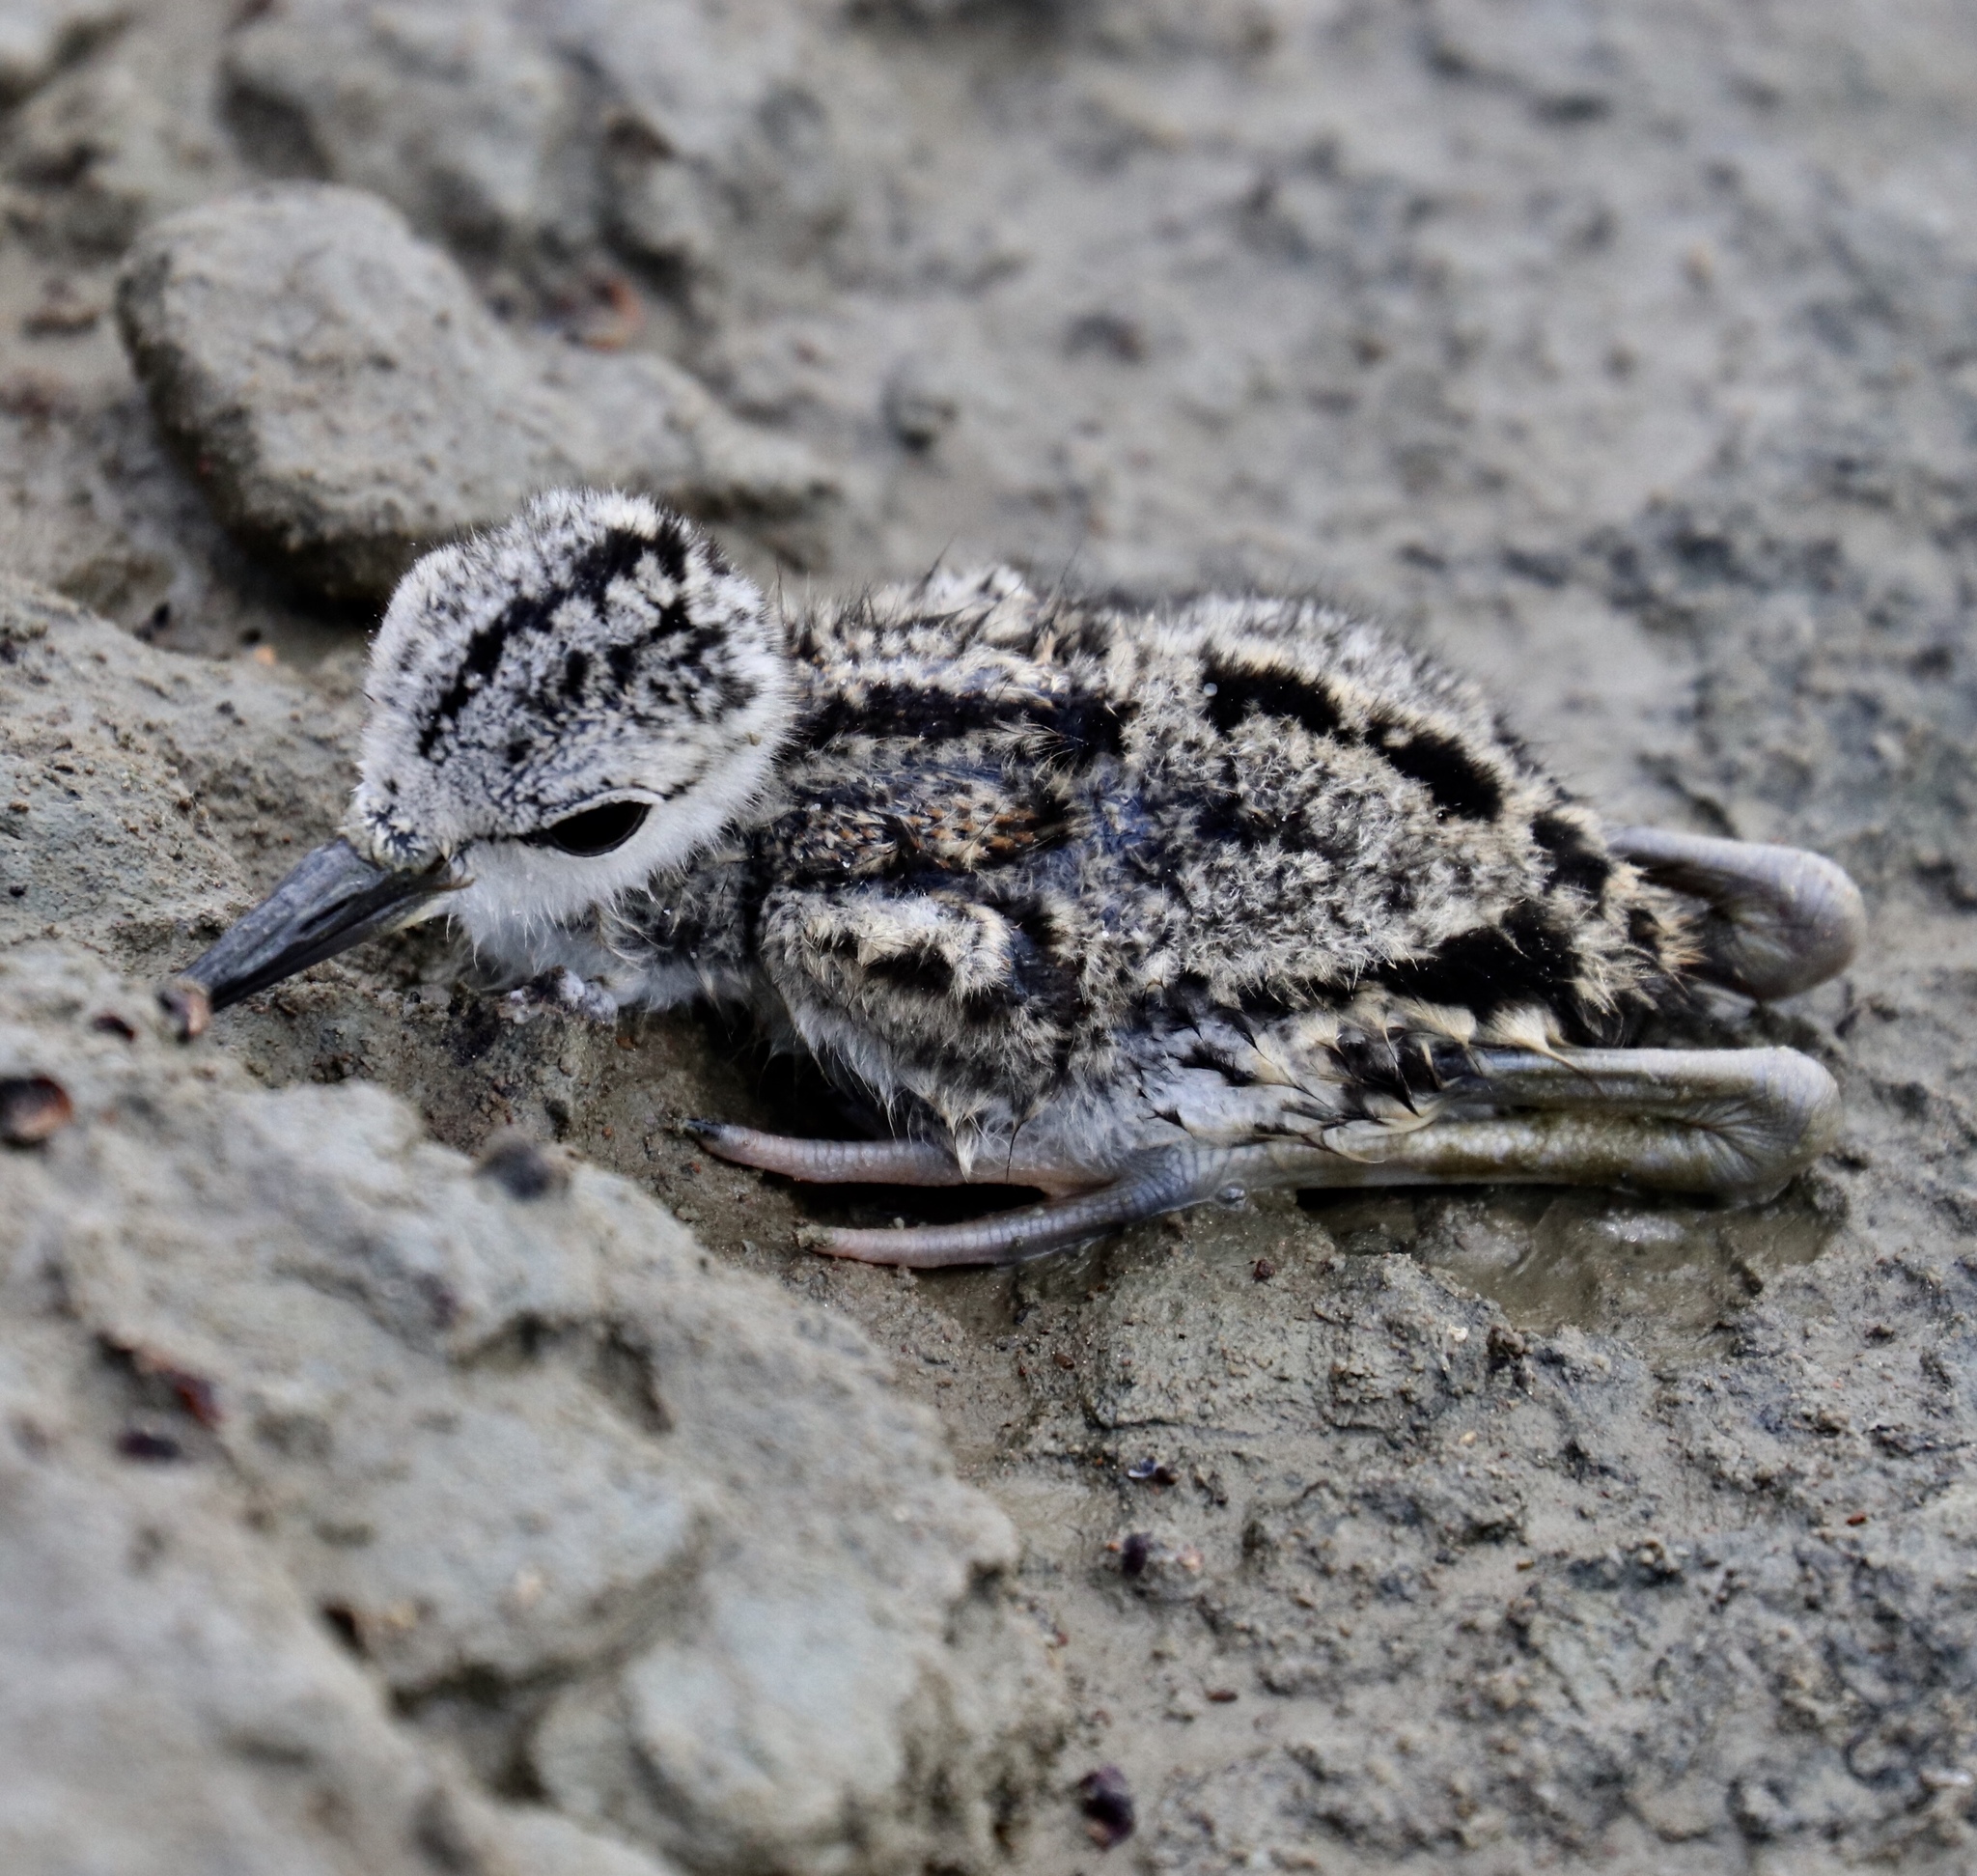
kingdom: Animalia
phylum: Chordata
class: Aves
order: Charadriiformes
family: Recurvirostridae
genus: Himantopus
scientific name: Himantopus mexicanus
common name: Black-necked stilt
